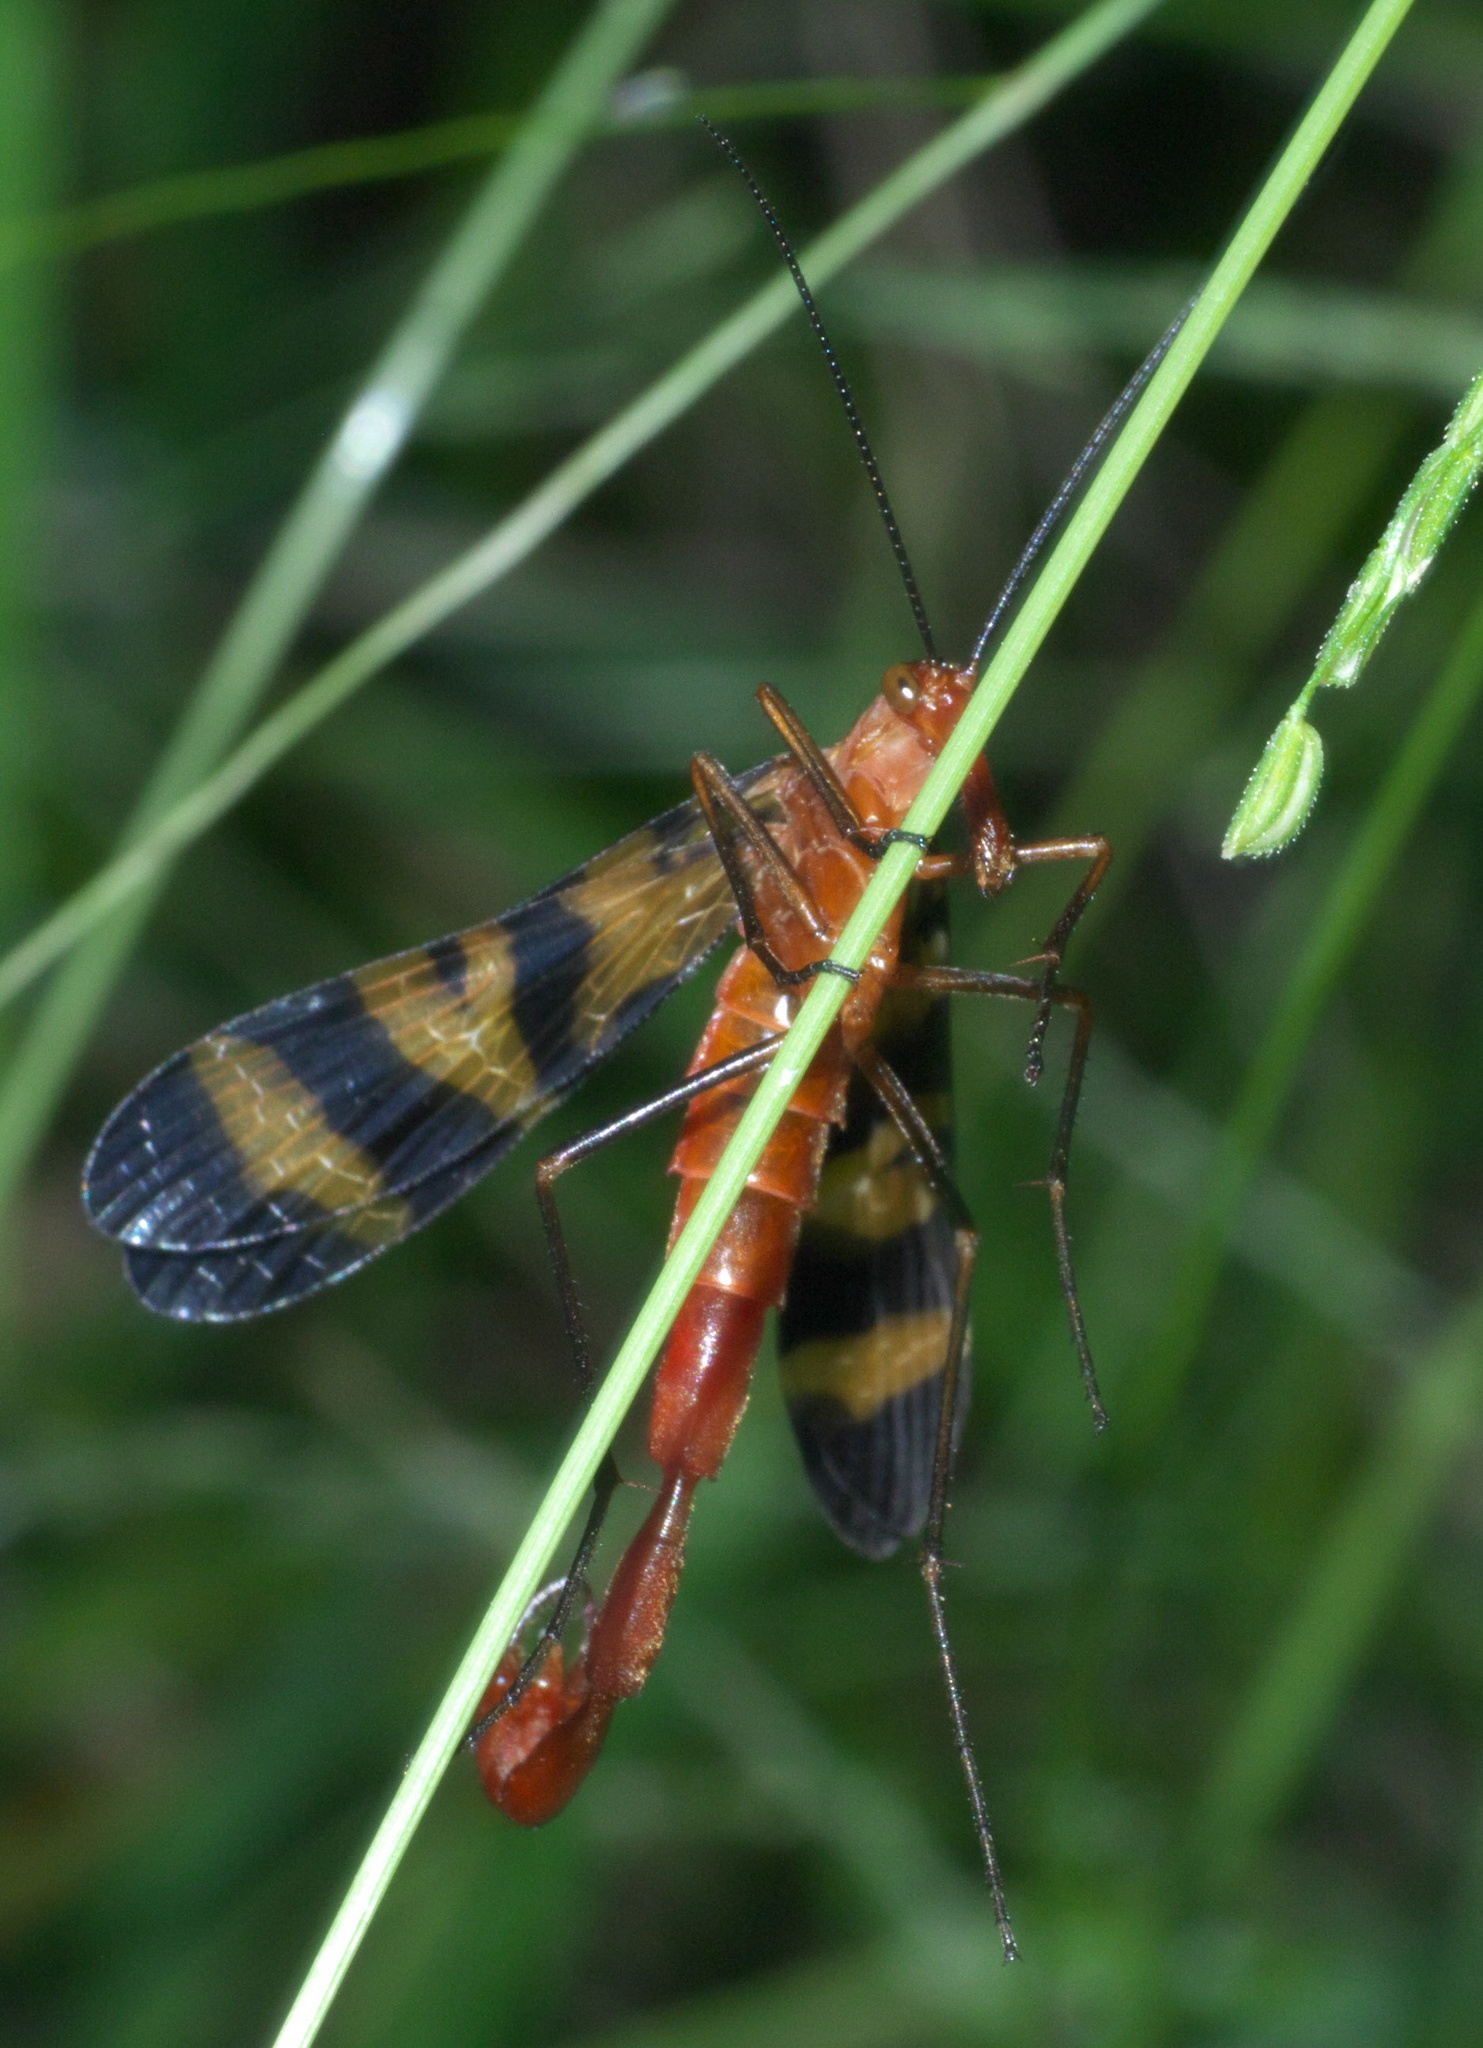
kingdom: Animalia
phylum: Arthropoda
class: Insecta
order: Mecoptera
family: Panorpidae
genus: Panorpa
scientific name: Panorpa nuptialis
